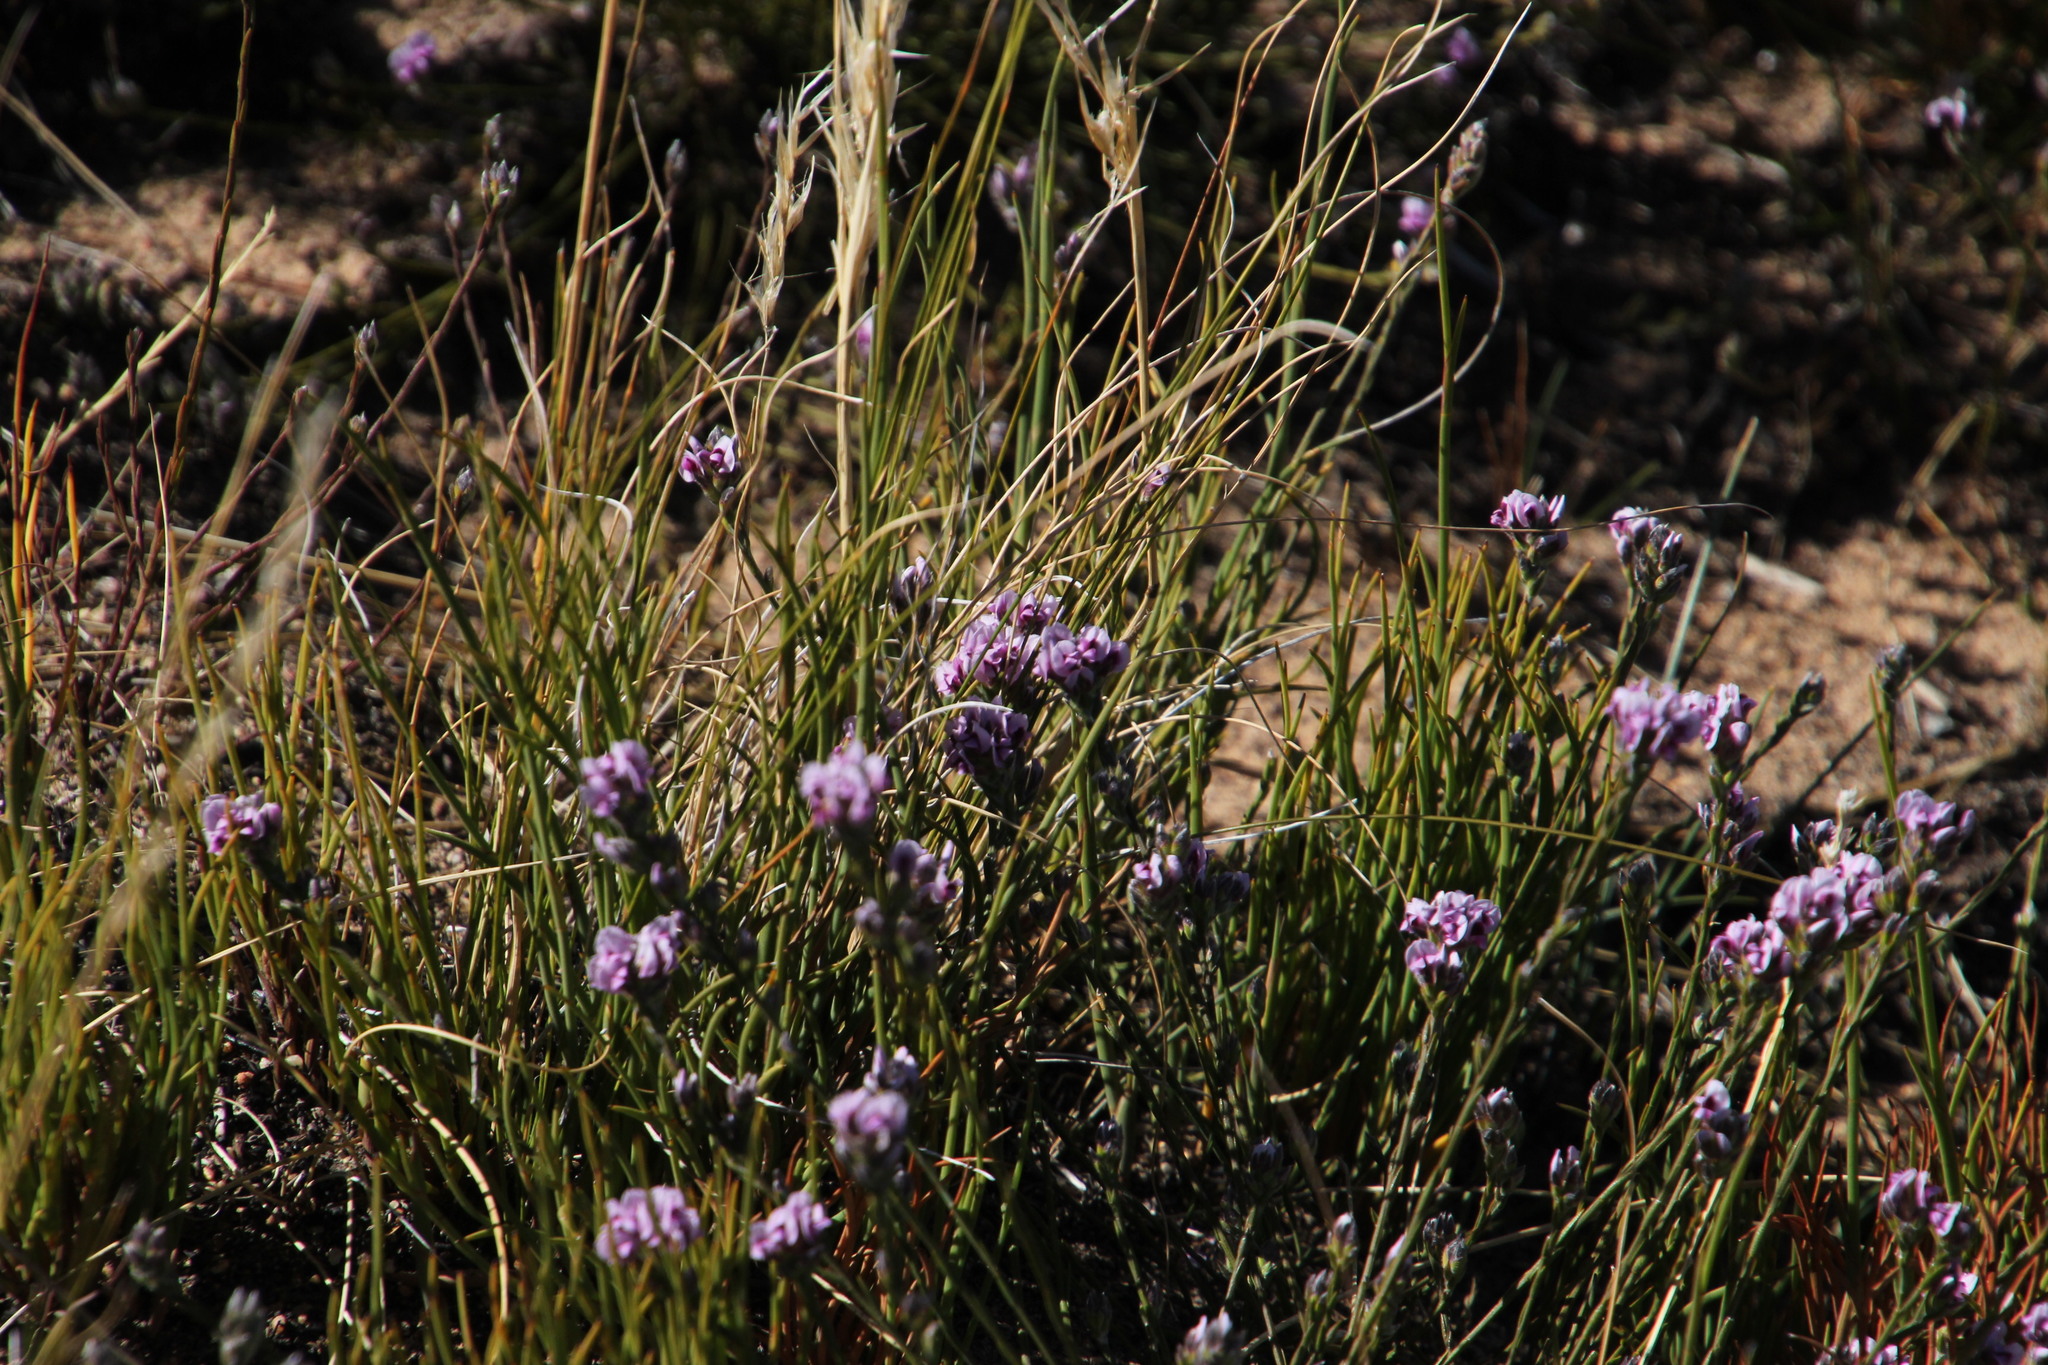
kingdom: Plantae
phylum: Tracheophyta
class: Magnoliopsida
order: Fabales
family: Fabaceae
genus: Amphithalea
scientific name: Amphithalea cedarbergensis
